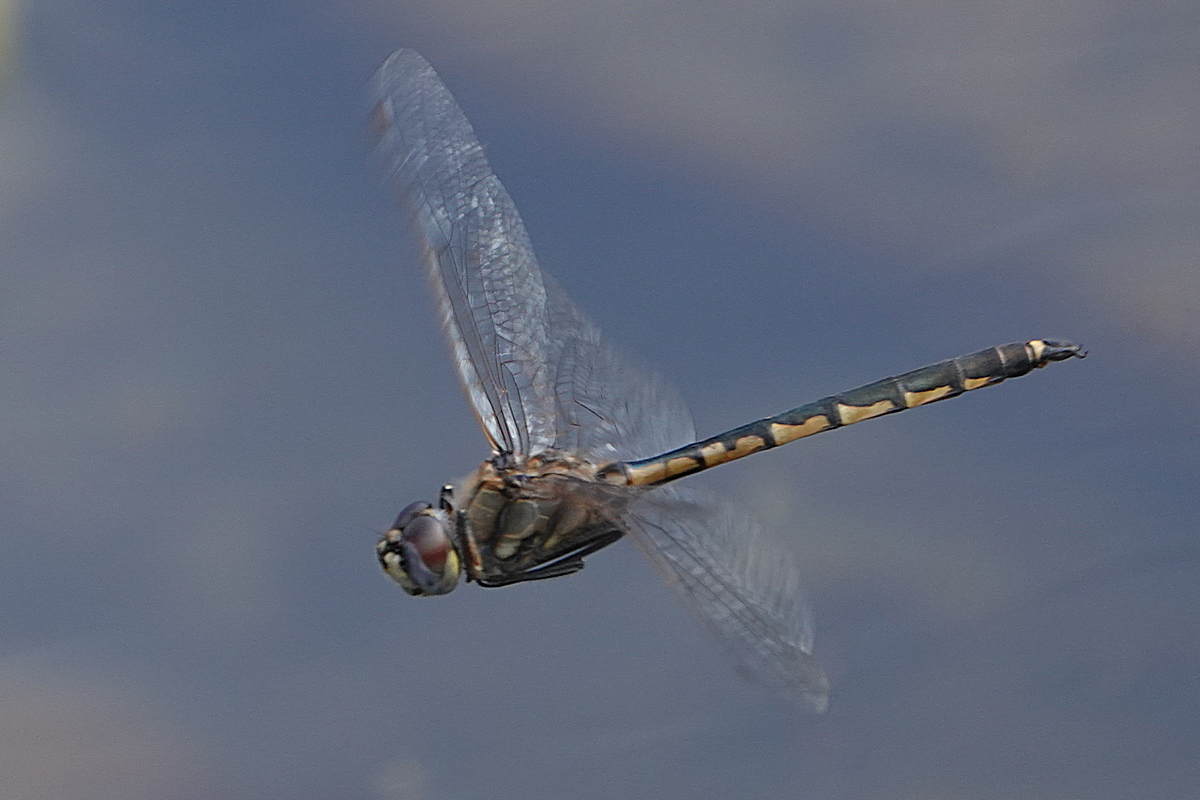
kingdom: Animalia
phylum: Arthropoda
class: Insecta
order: Odonata
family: Corduliidae
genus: Hemicordulia
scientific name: Hemicordulia tau
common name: Tau emerald
